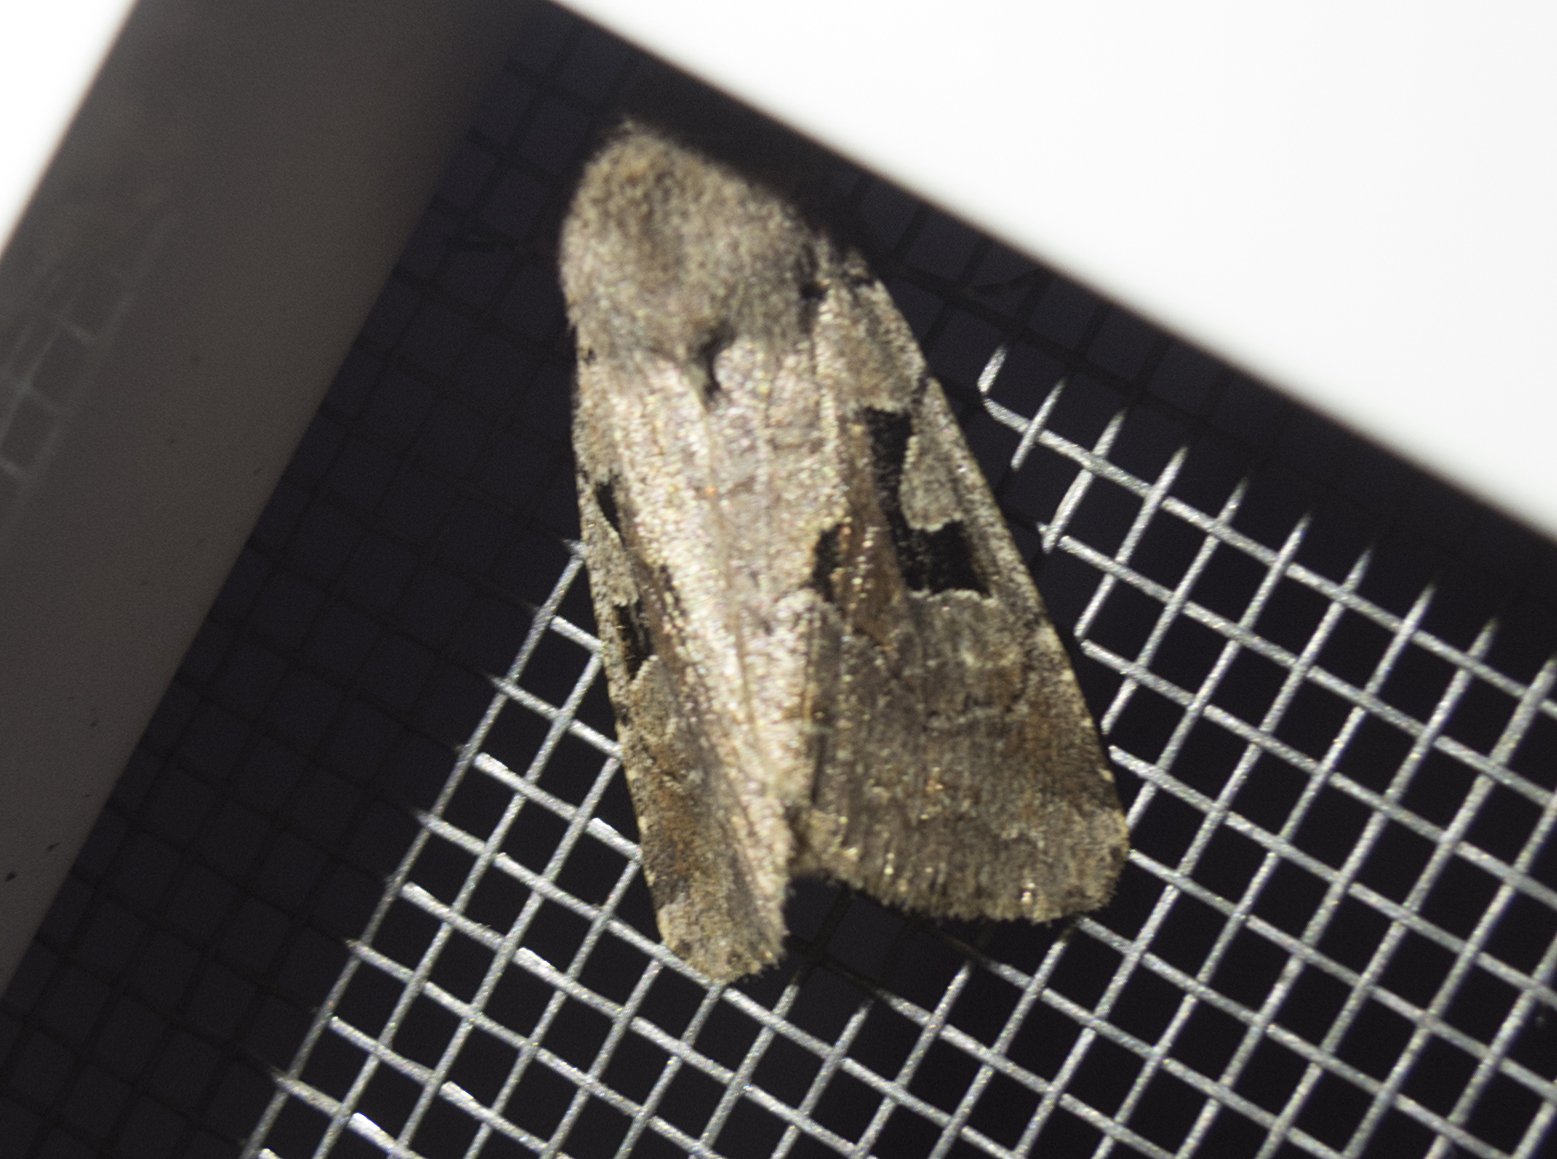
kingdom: Animalia
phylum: Arthropoda
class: Insecta
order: Lepidoptera
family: Noctuidae
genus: Orthosia
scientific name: Orthosia gothica
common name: Hebrew character
